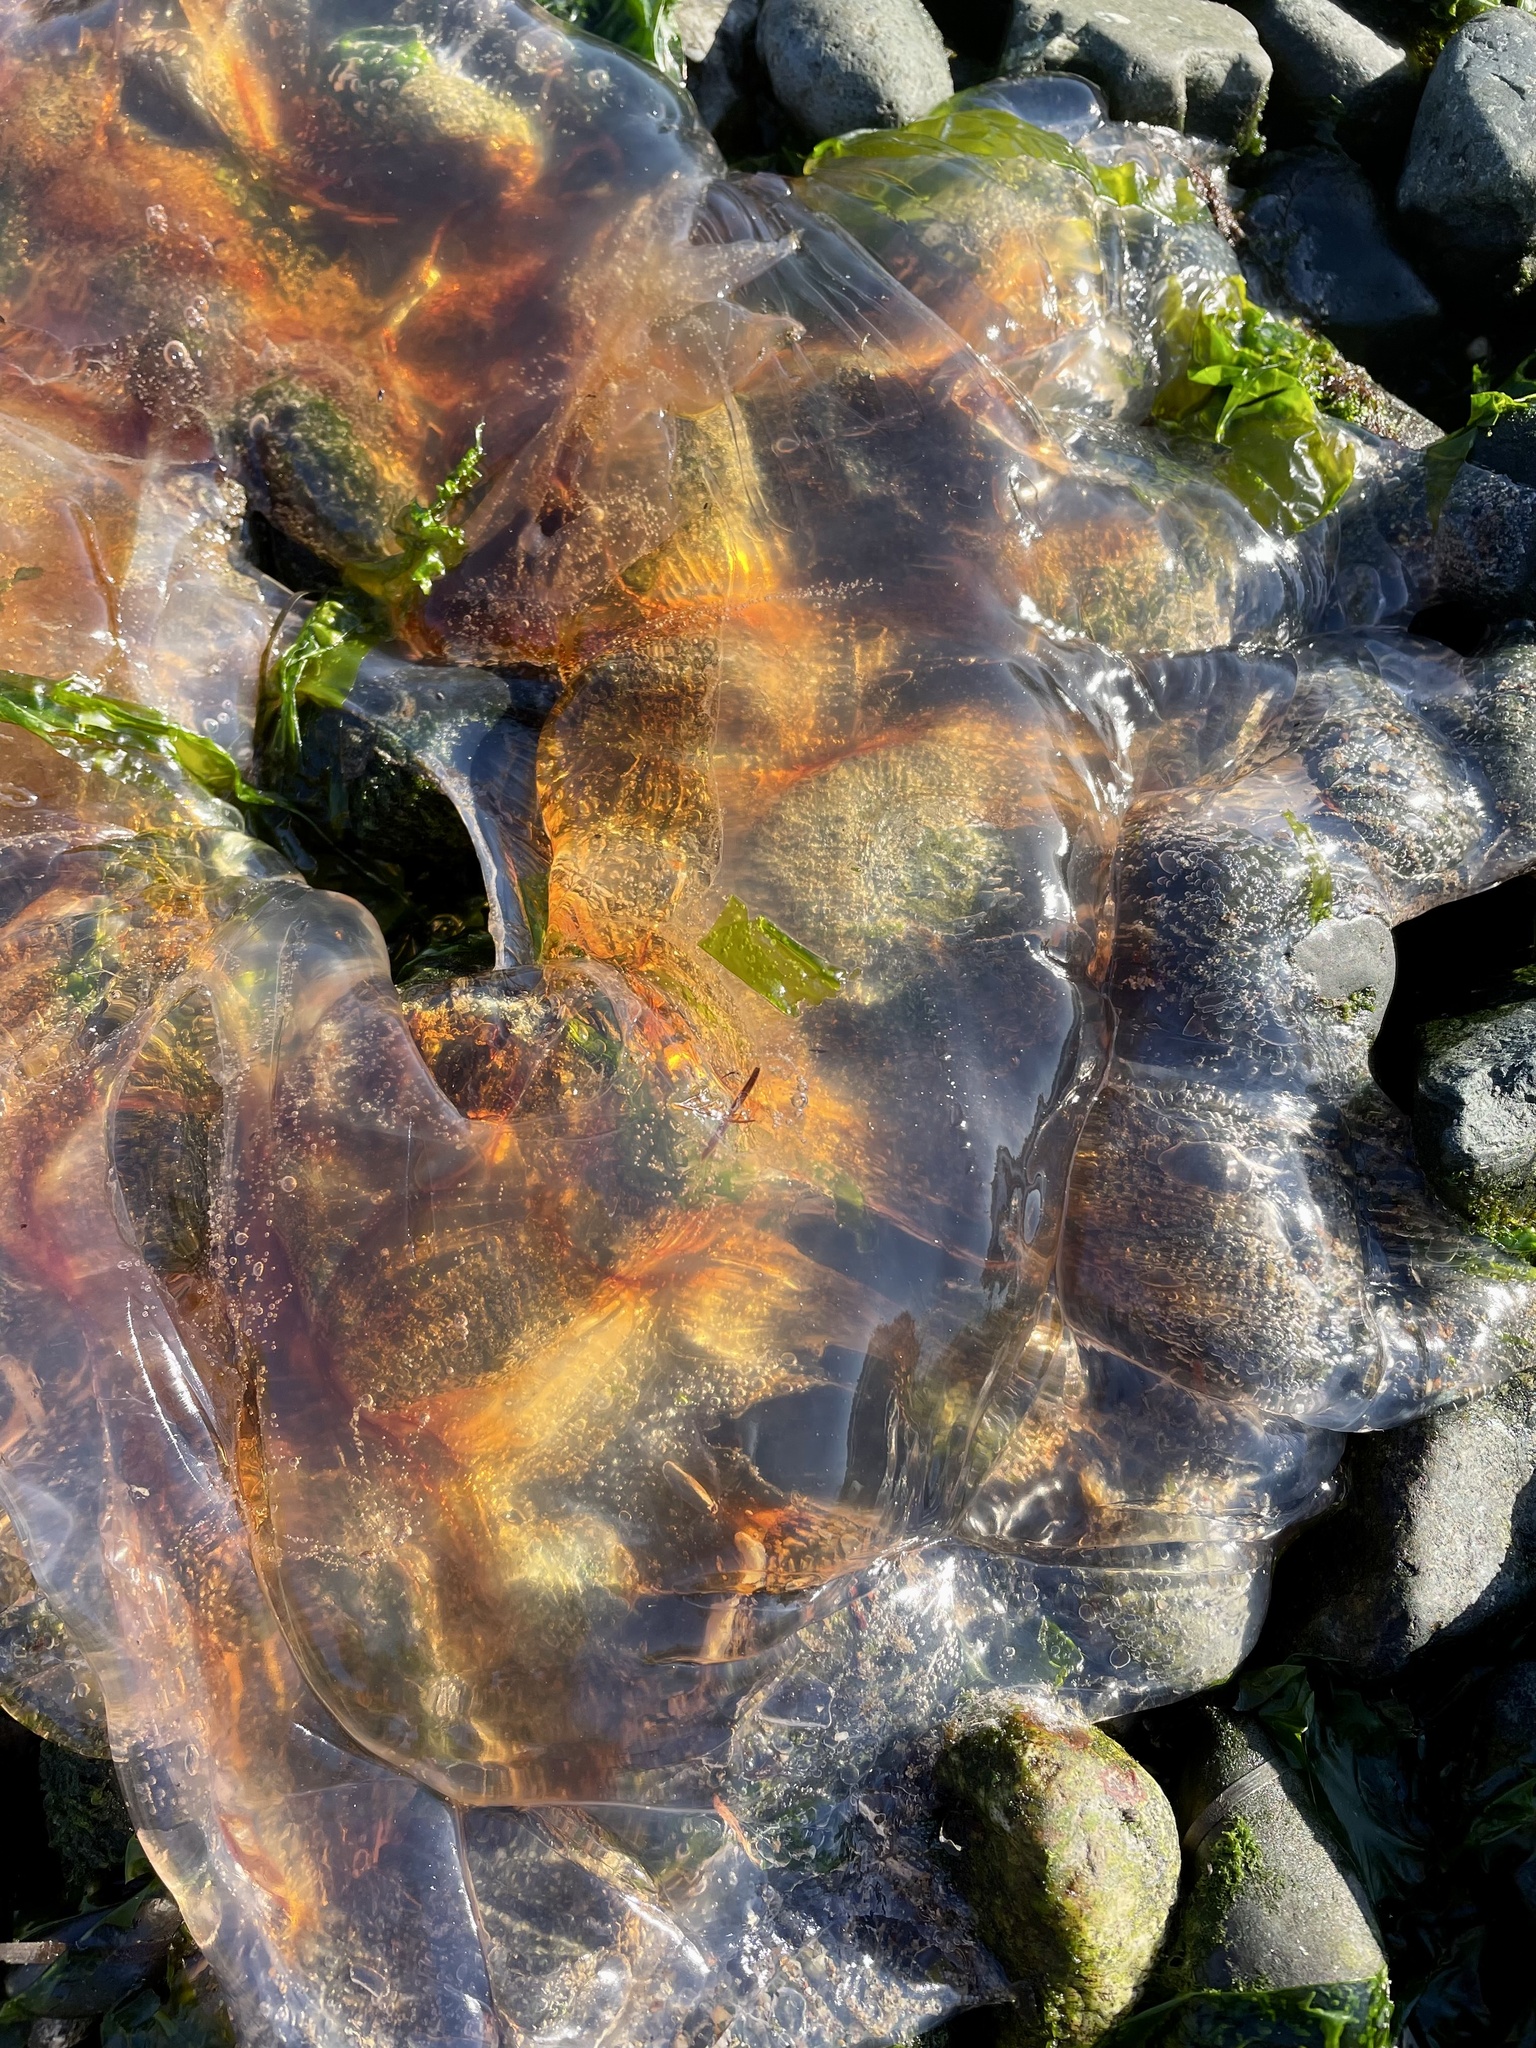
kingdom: Animalia
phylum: Cnidaria
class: Scyphozoa
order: Semaeostomeae
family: Cyaneidae
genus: Cyanea
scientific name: Cyanea ferruginea
